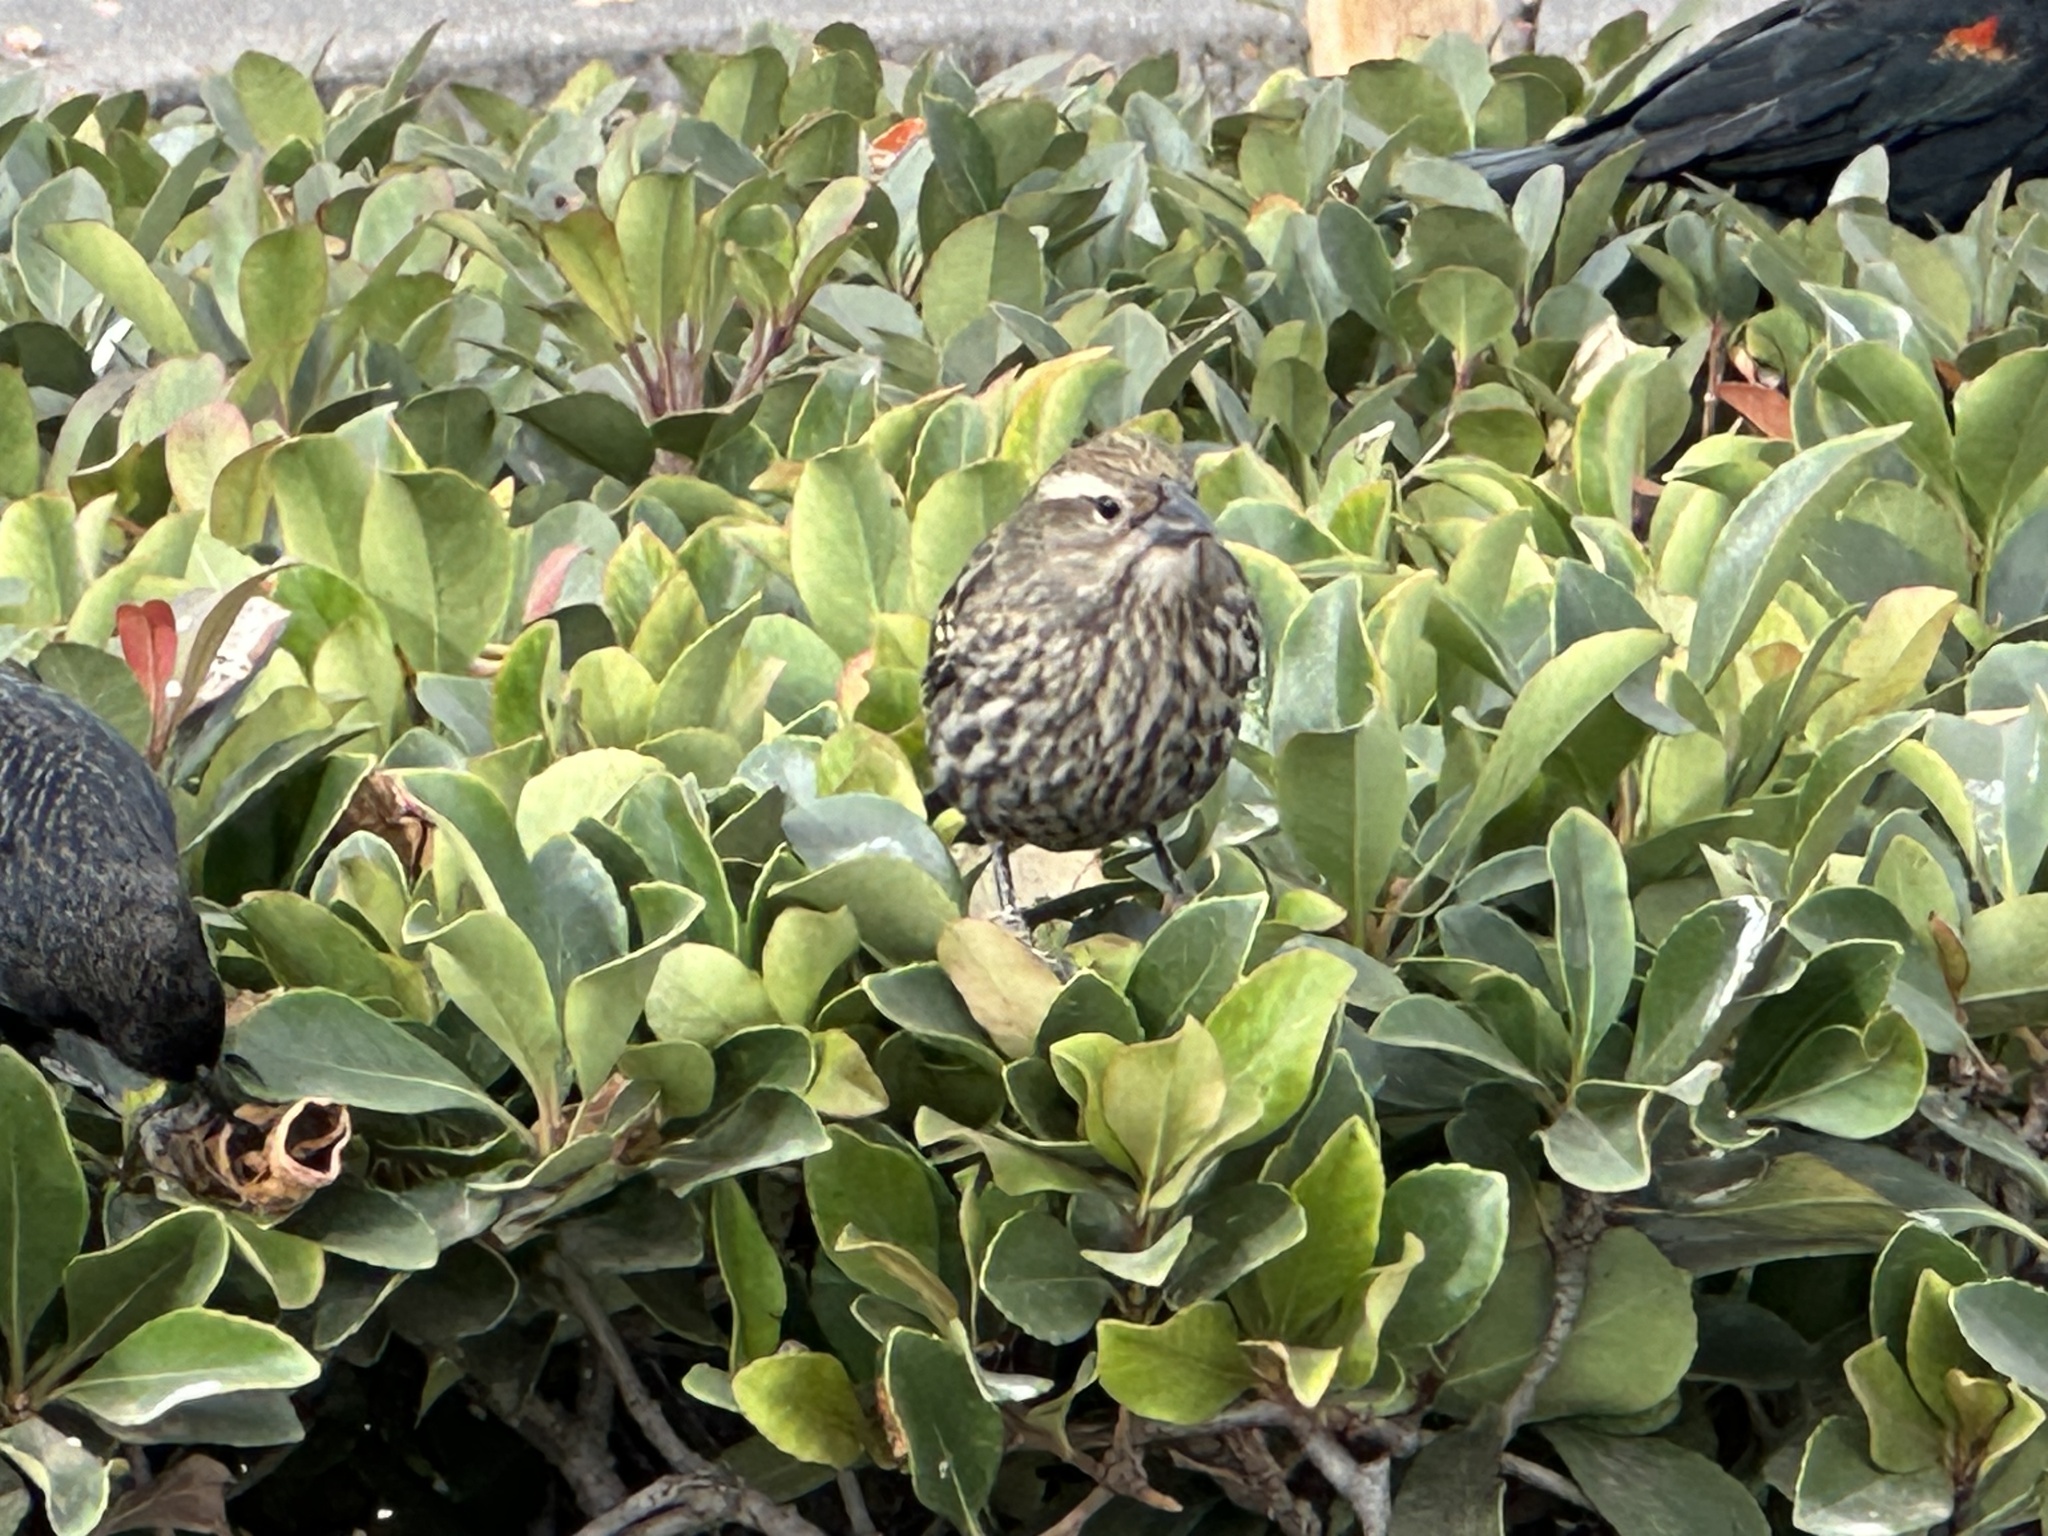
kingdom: Animalia
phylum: Chordata
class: Aves
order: Passeriformes
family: Icteridae
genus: Agelaius
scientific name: Agelaius phoeniceus
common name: Red-winged blackbird
